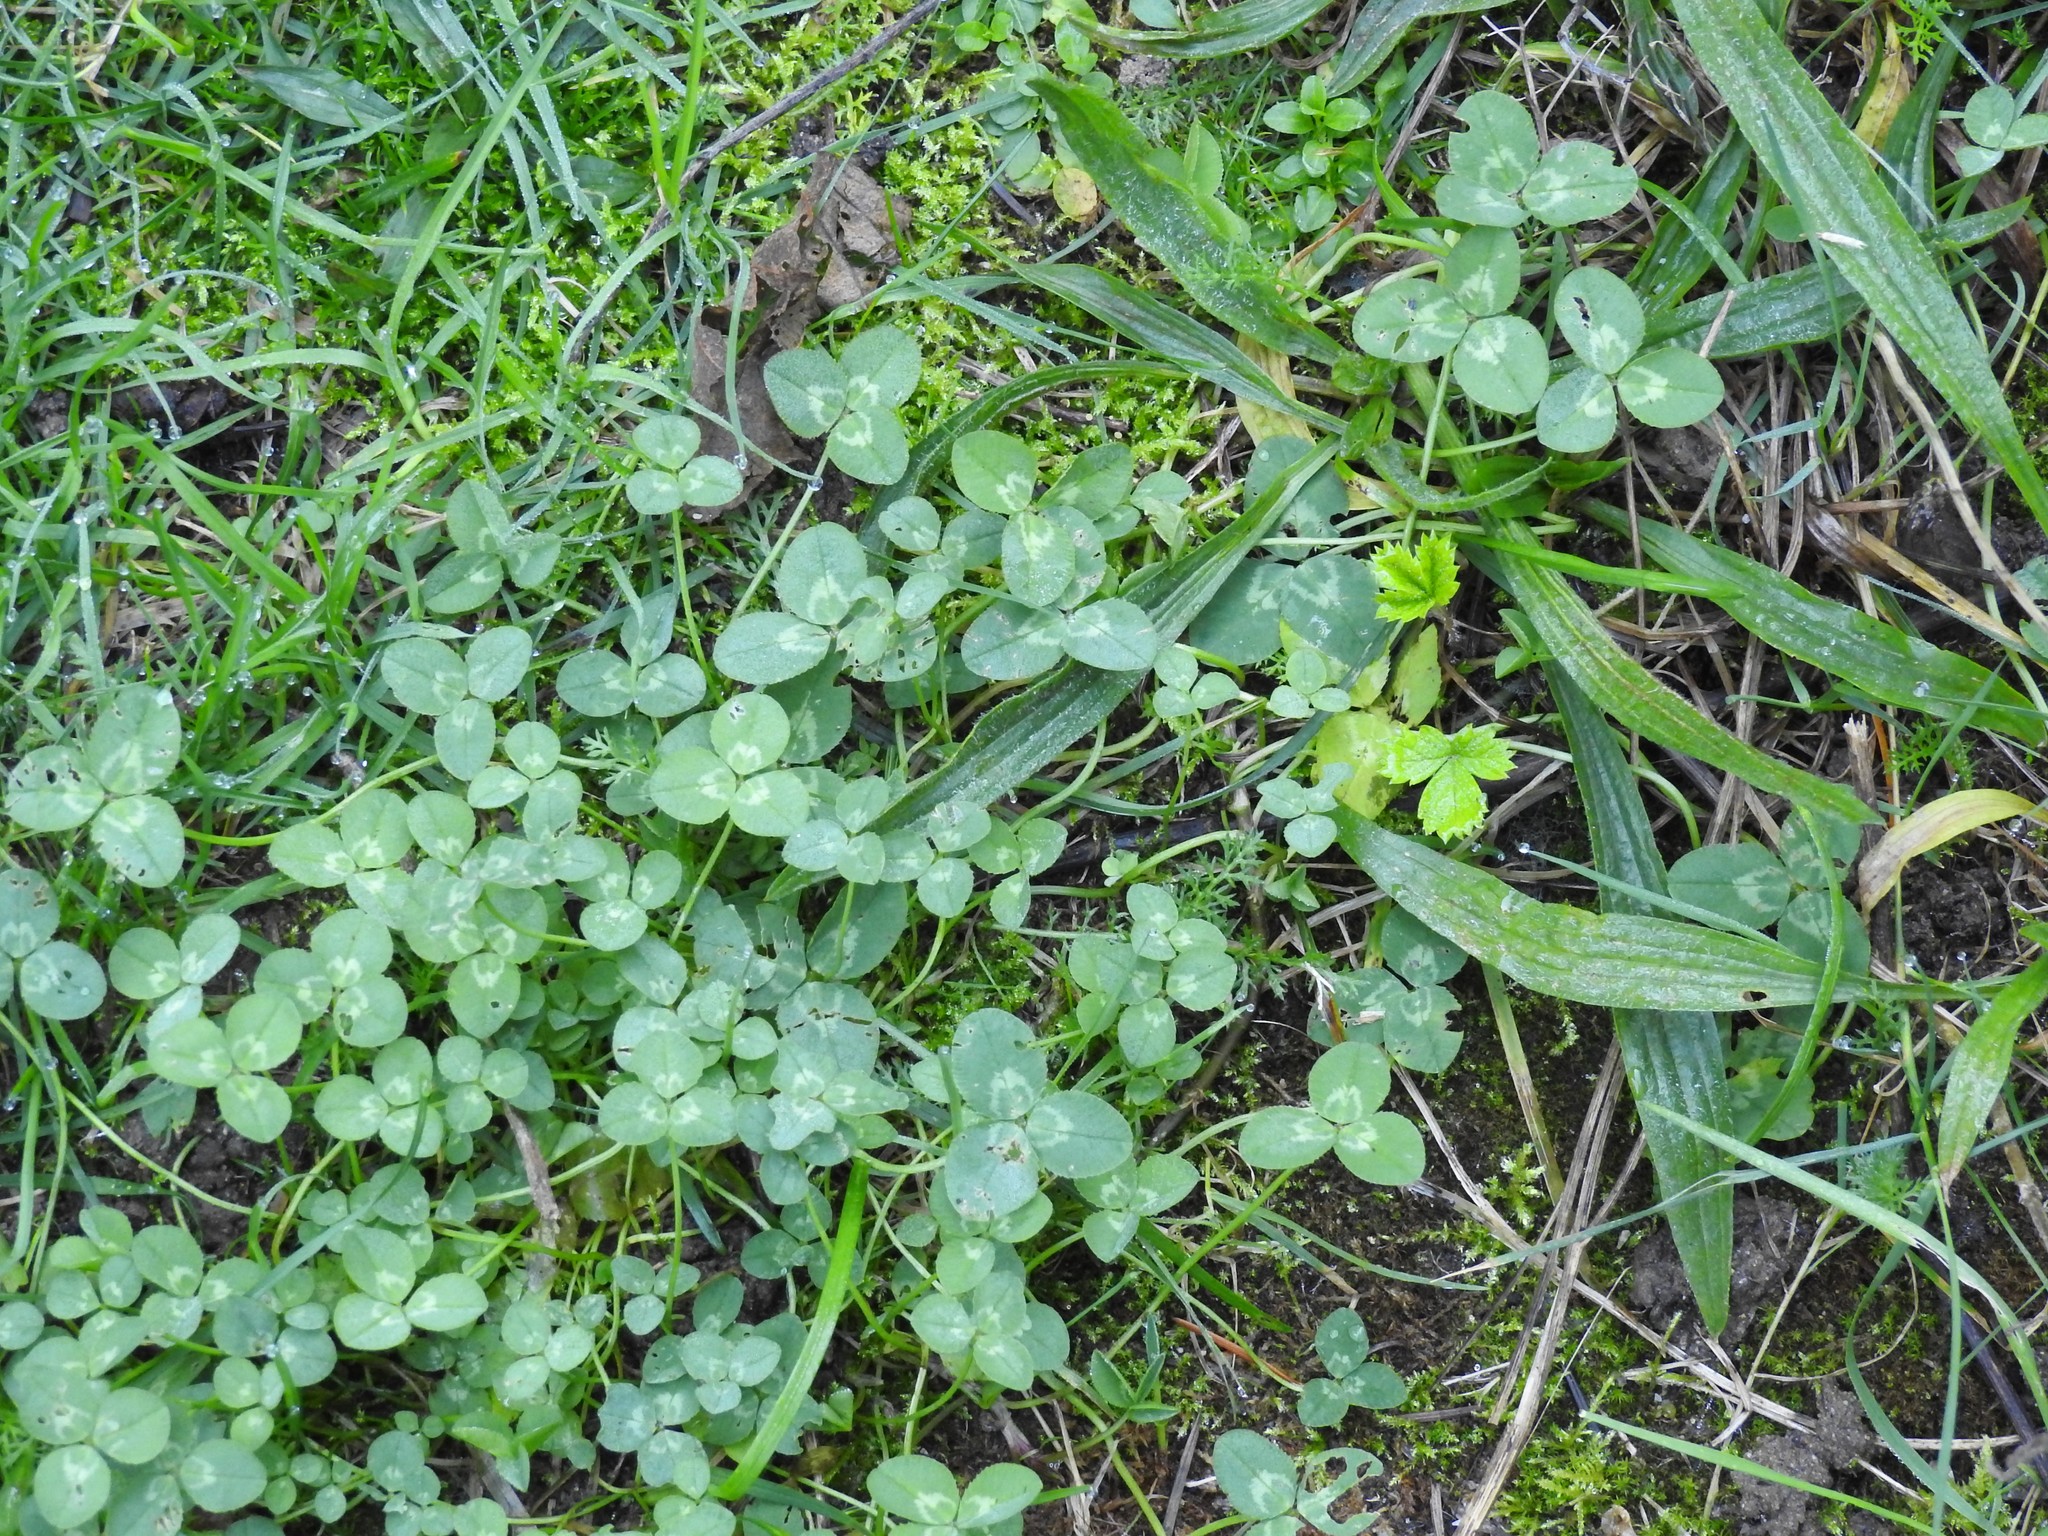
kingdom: Plantae
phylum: Tracheophyta
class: Magnoliopsida
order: Fabales
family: Fabaceae
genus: Trifolium
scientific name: Trifolium repens
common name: White clover
